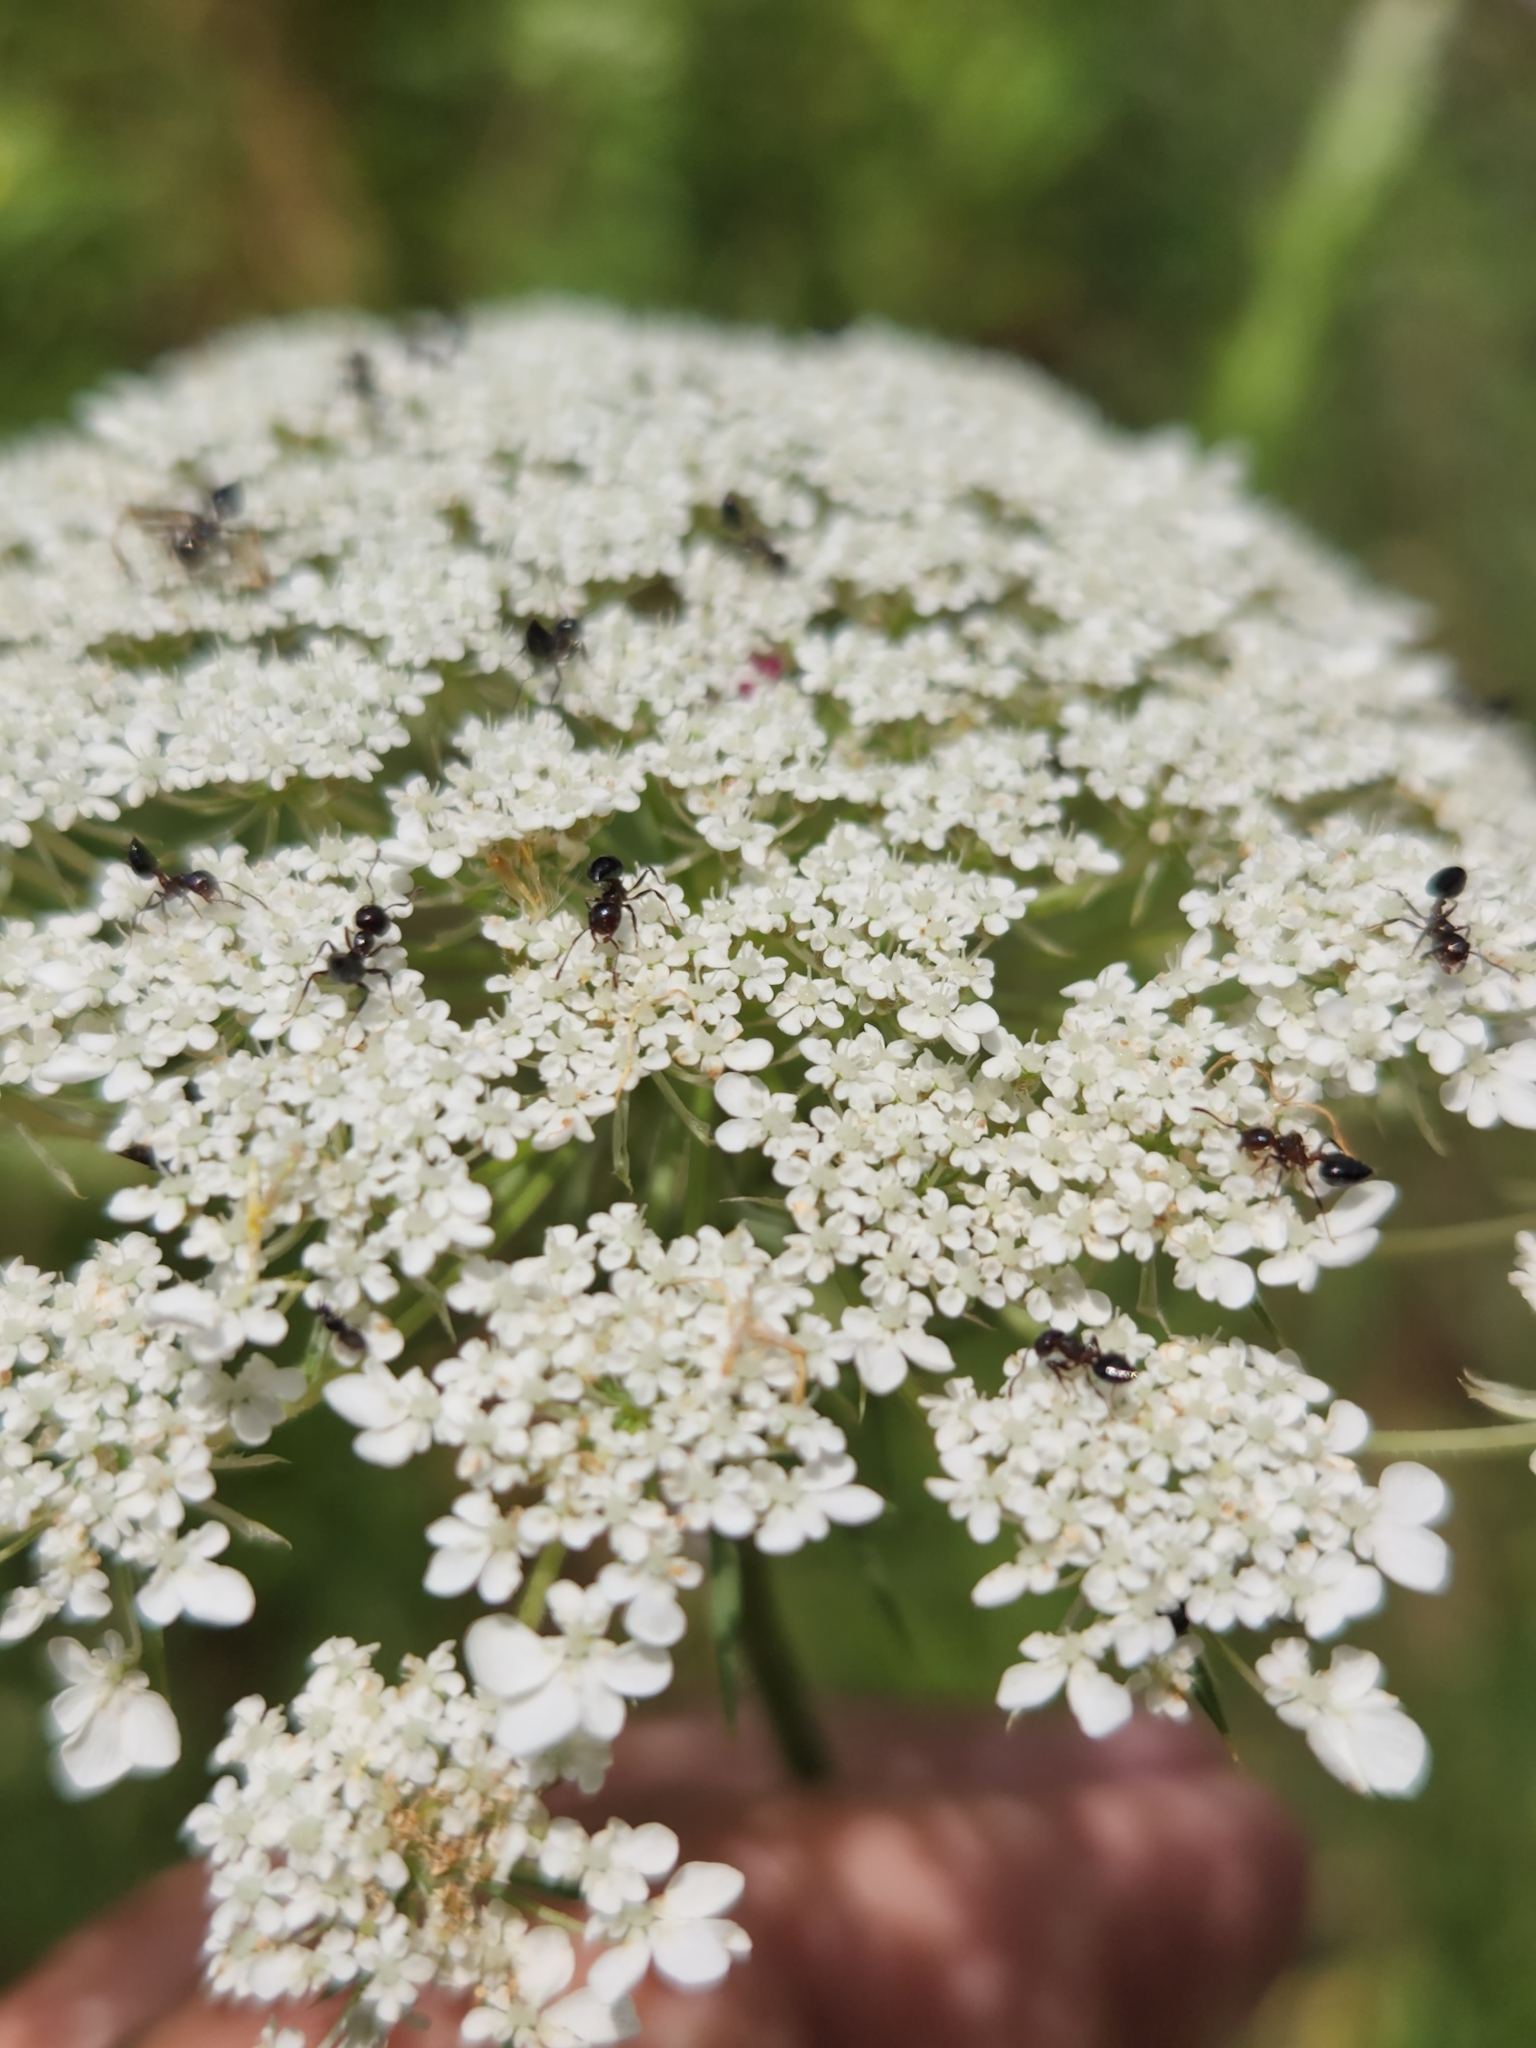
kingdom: Plantae
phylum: Tracheophyta
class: Magnoliopsida
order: Apiales
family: Apiaceae
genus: Daucus
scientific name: Daucus carota
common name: Wild carrot
